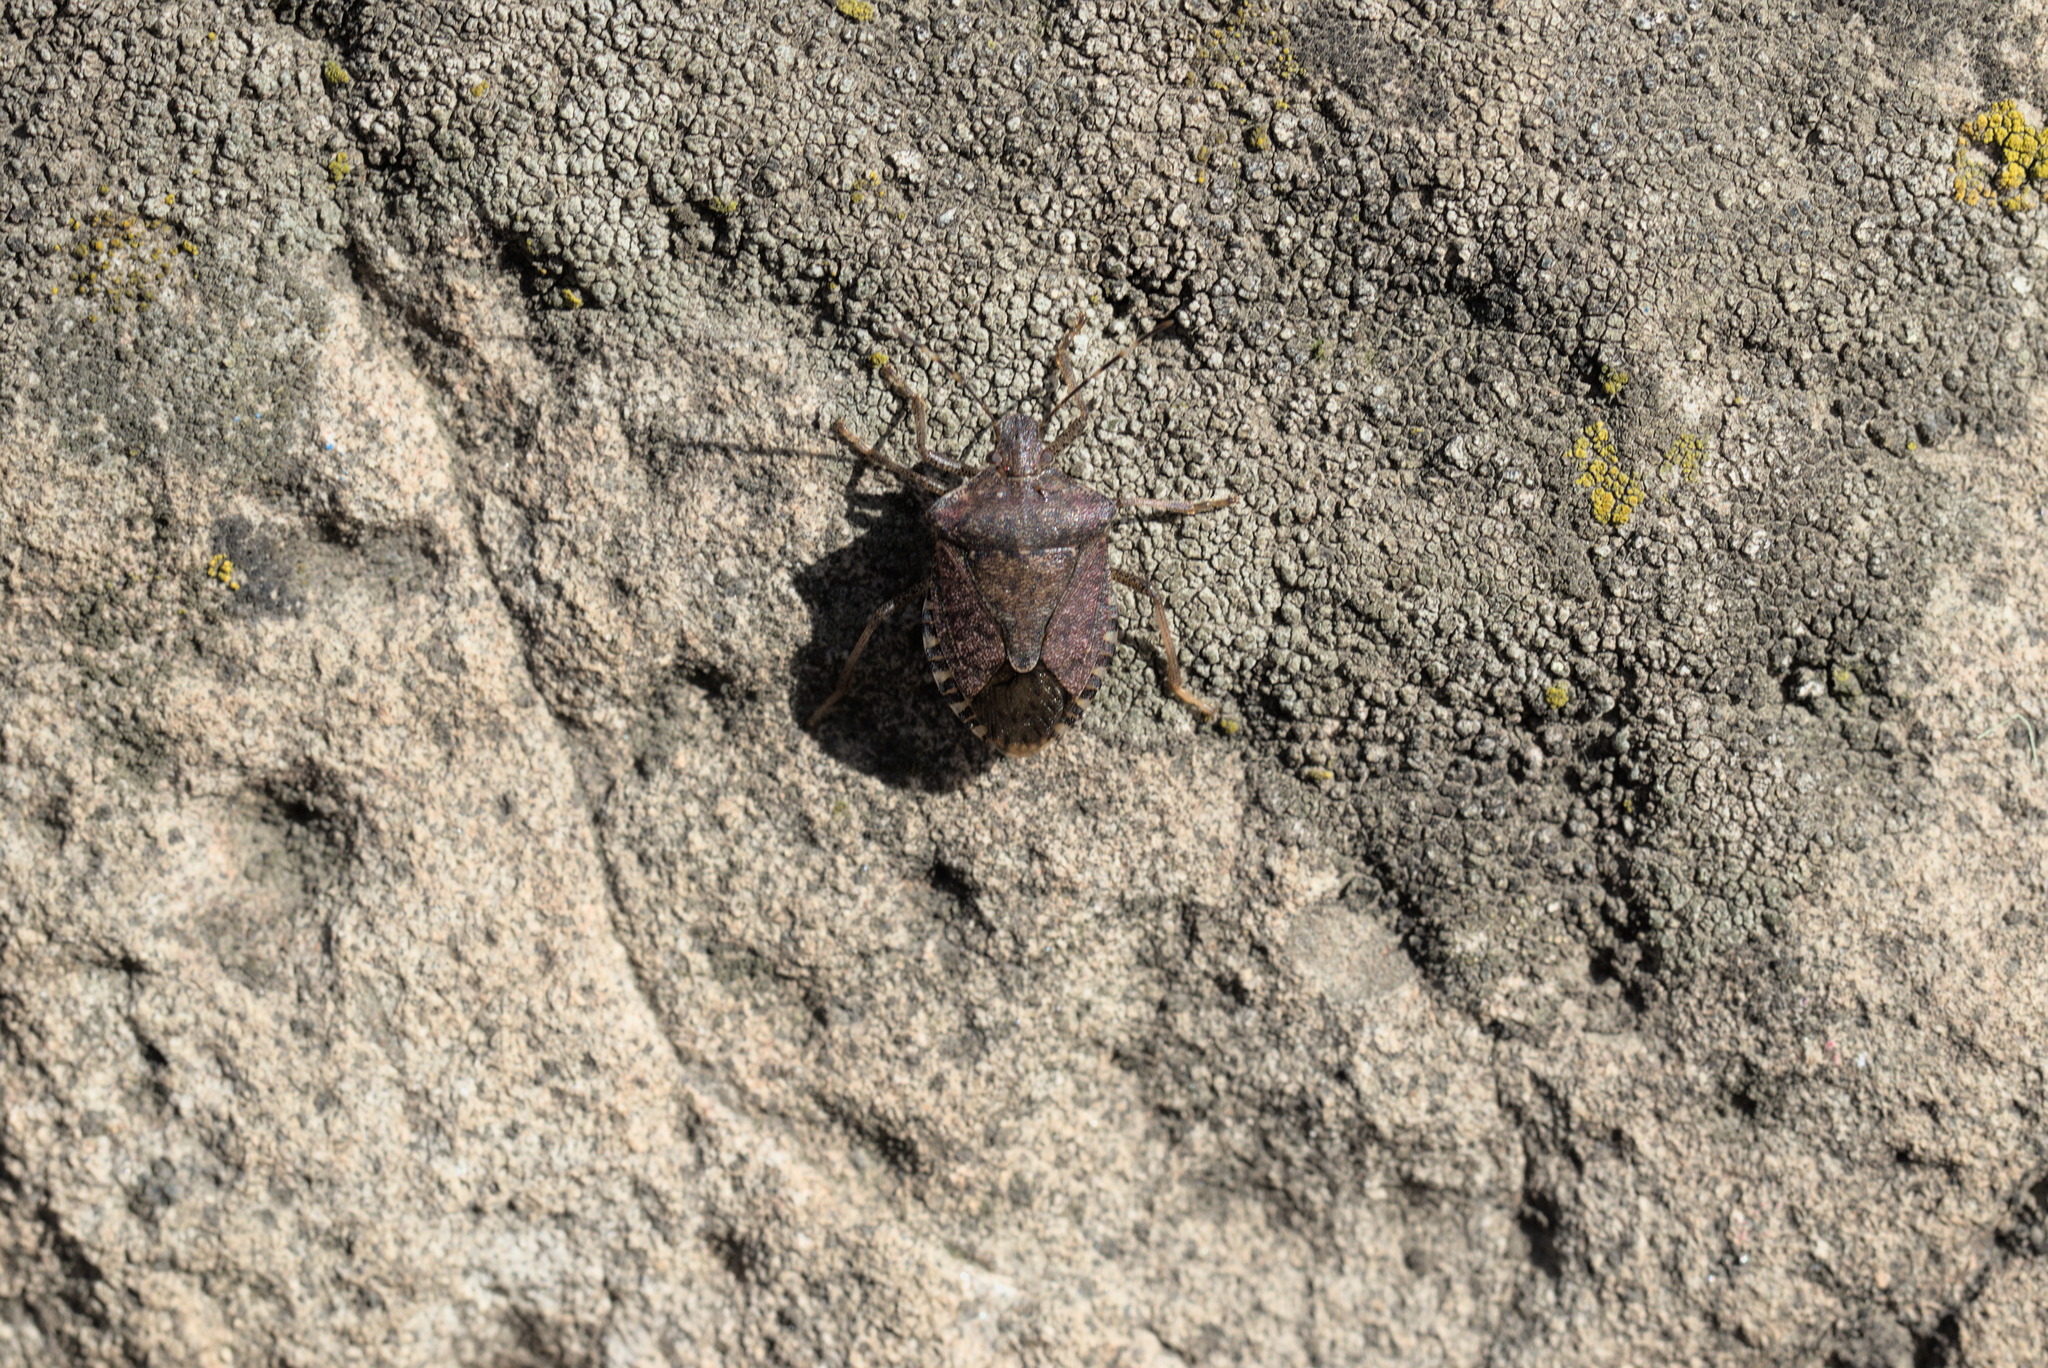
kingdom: Animalia
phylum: Arthropoda
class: Insecta
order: Hemiptera
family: Pentatomidae
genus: Halyomorpha
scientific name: Halyomorpha halys
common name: Brown marmorated stink bug
